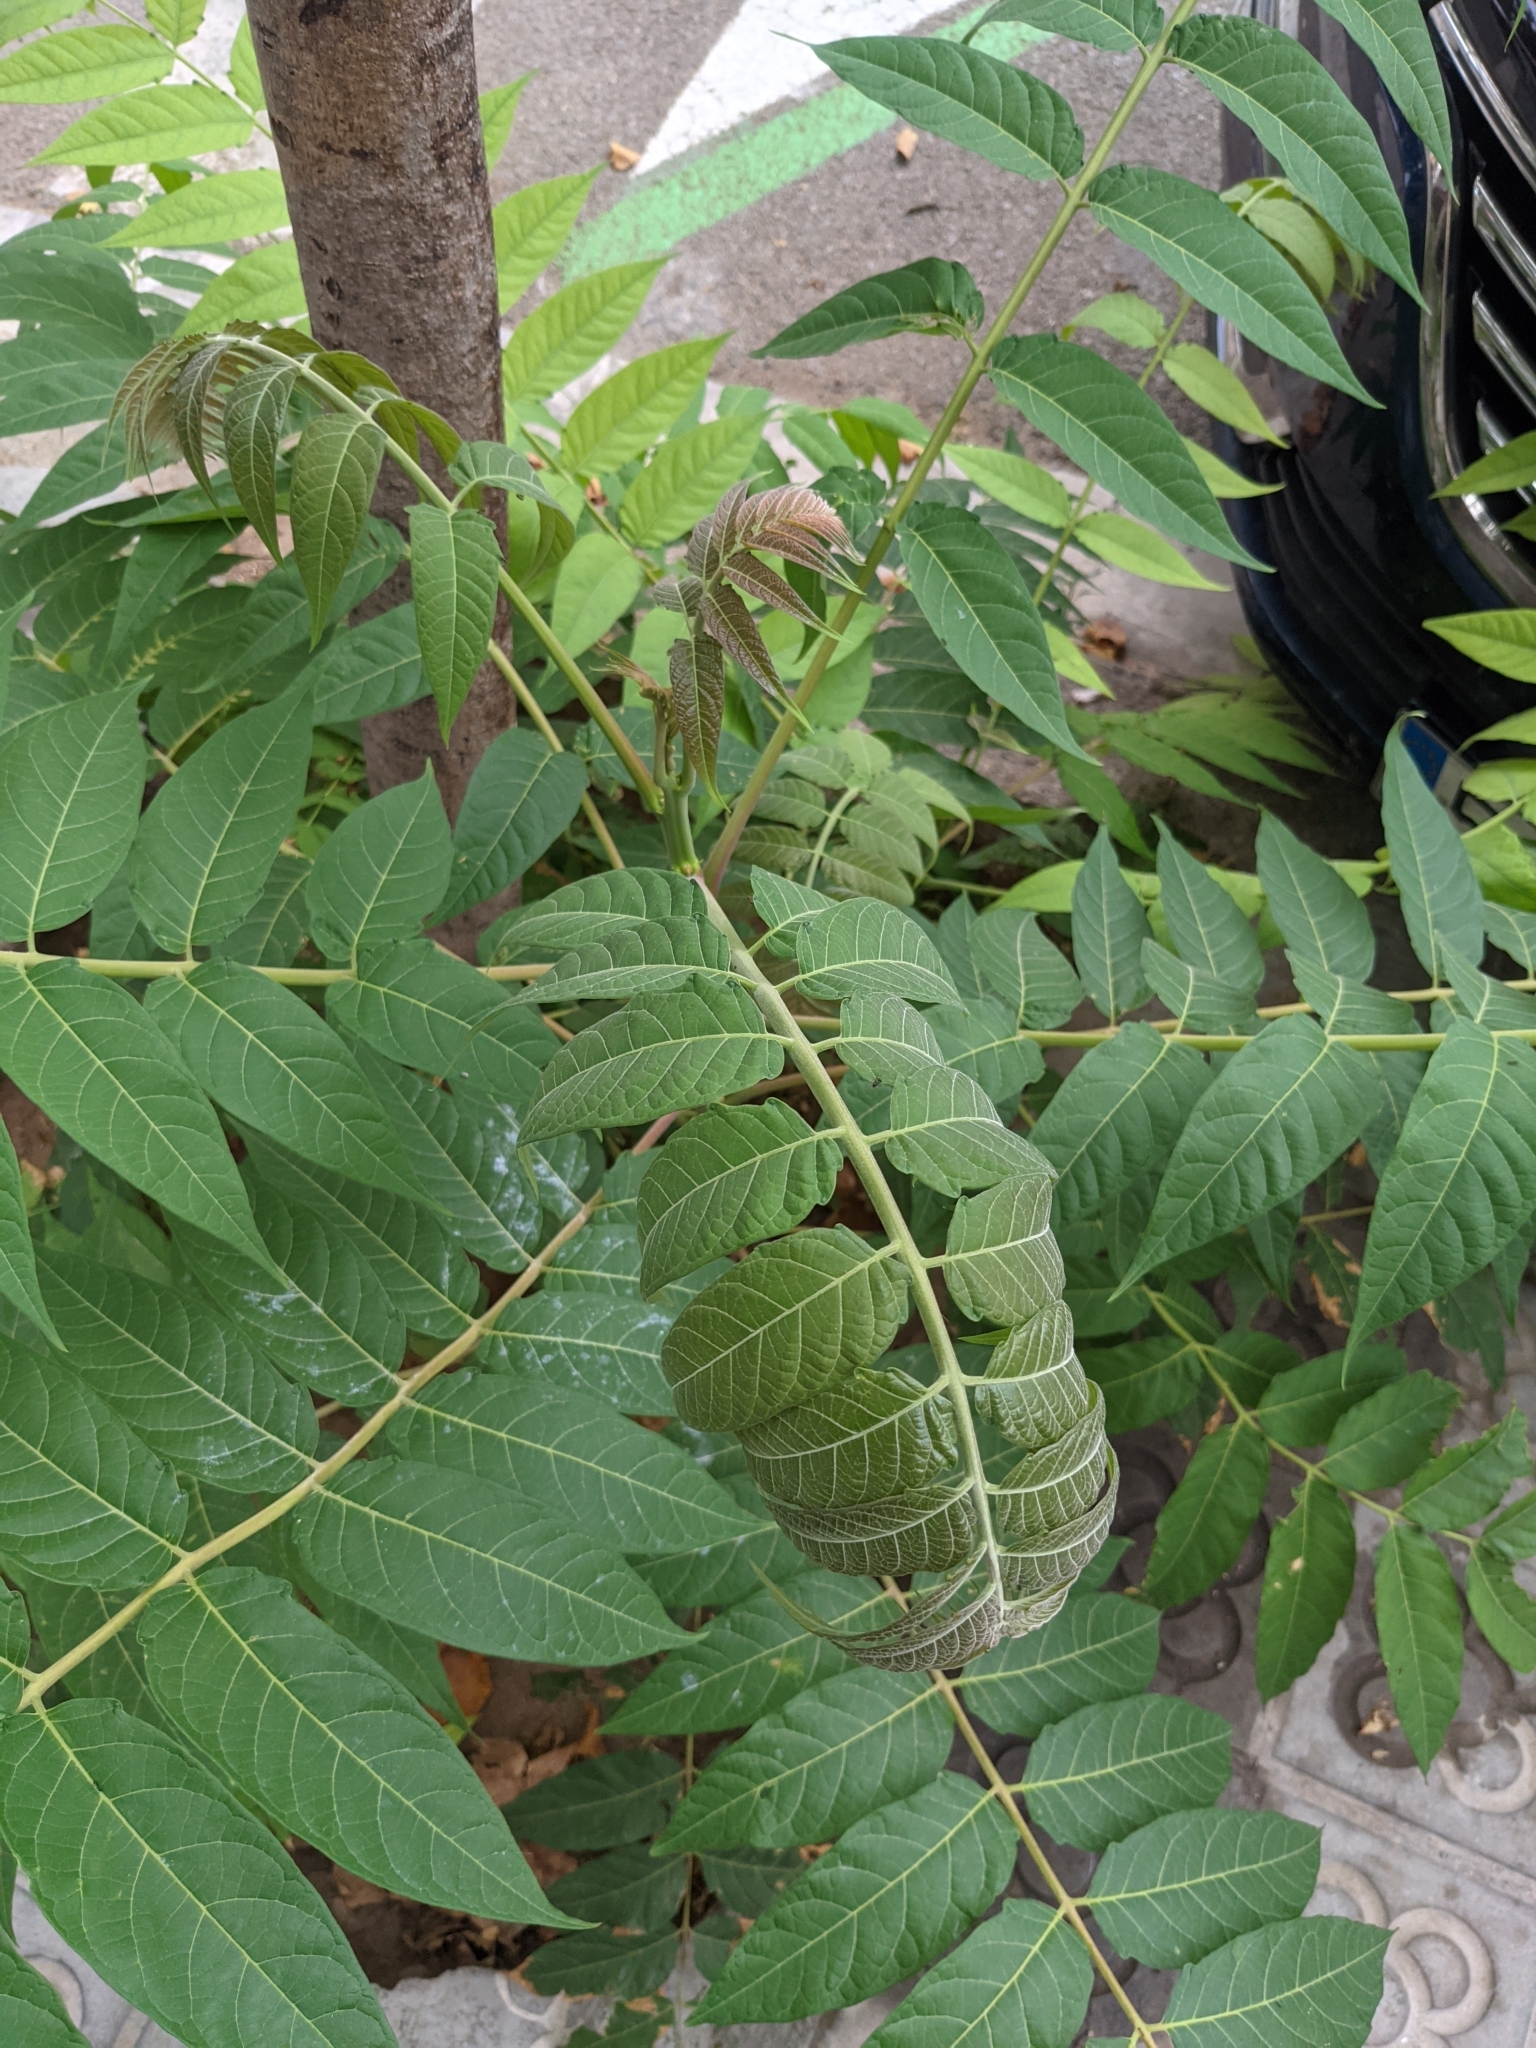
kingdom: Plantae
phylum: Tracheophyta
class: Magnoliopsida
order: Sapindales
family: Simaroubaceae
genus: Ailanthus
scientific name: Ailanthus altissima
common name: Tree-of-heaven
